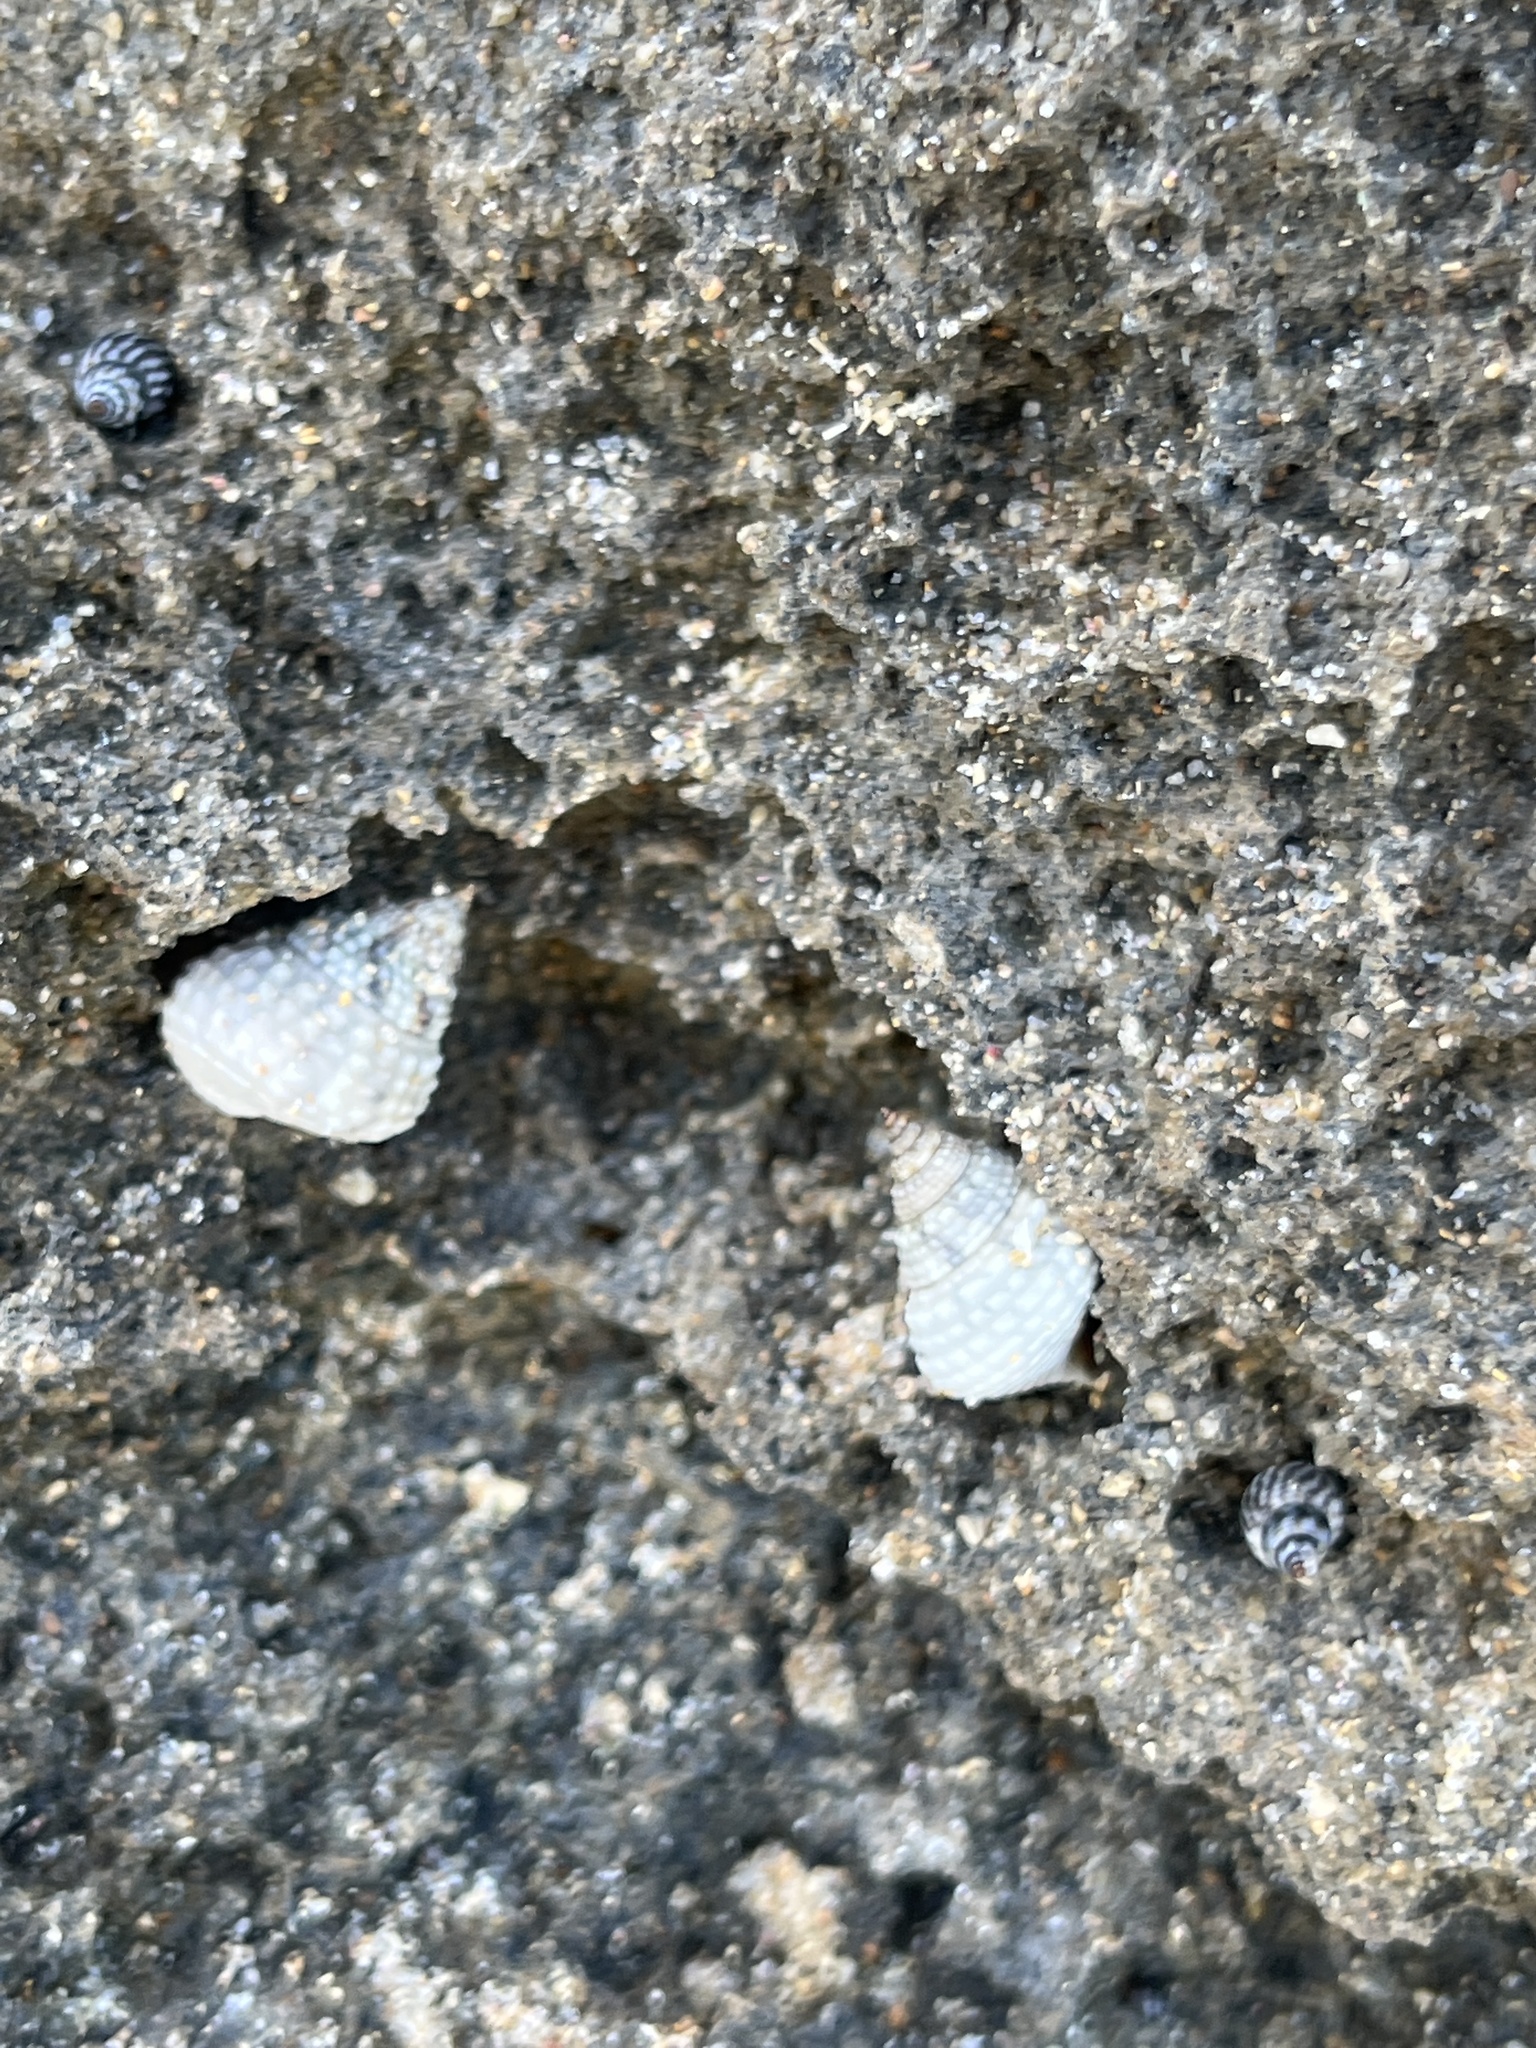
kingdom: Animalia
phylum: Mollusca
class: Gastropoda
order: Littorinimorpha
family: Littorinidae
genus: Cenchritis
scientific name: Cenchritis muricatus
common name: Beaded periwinkle
